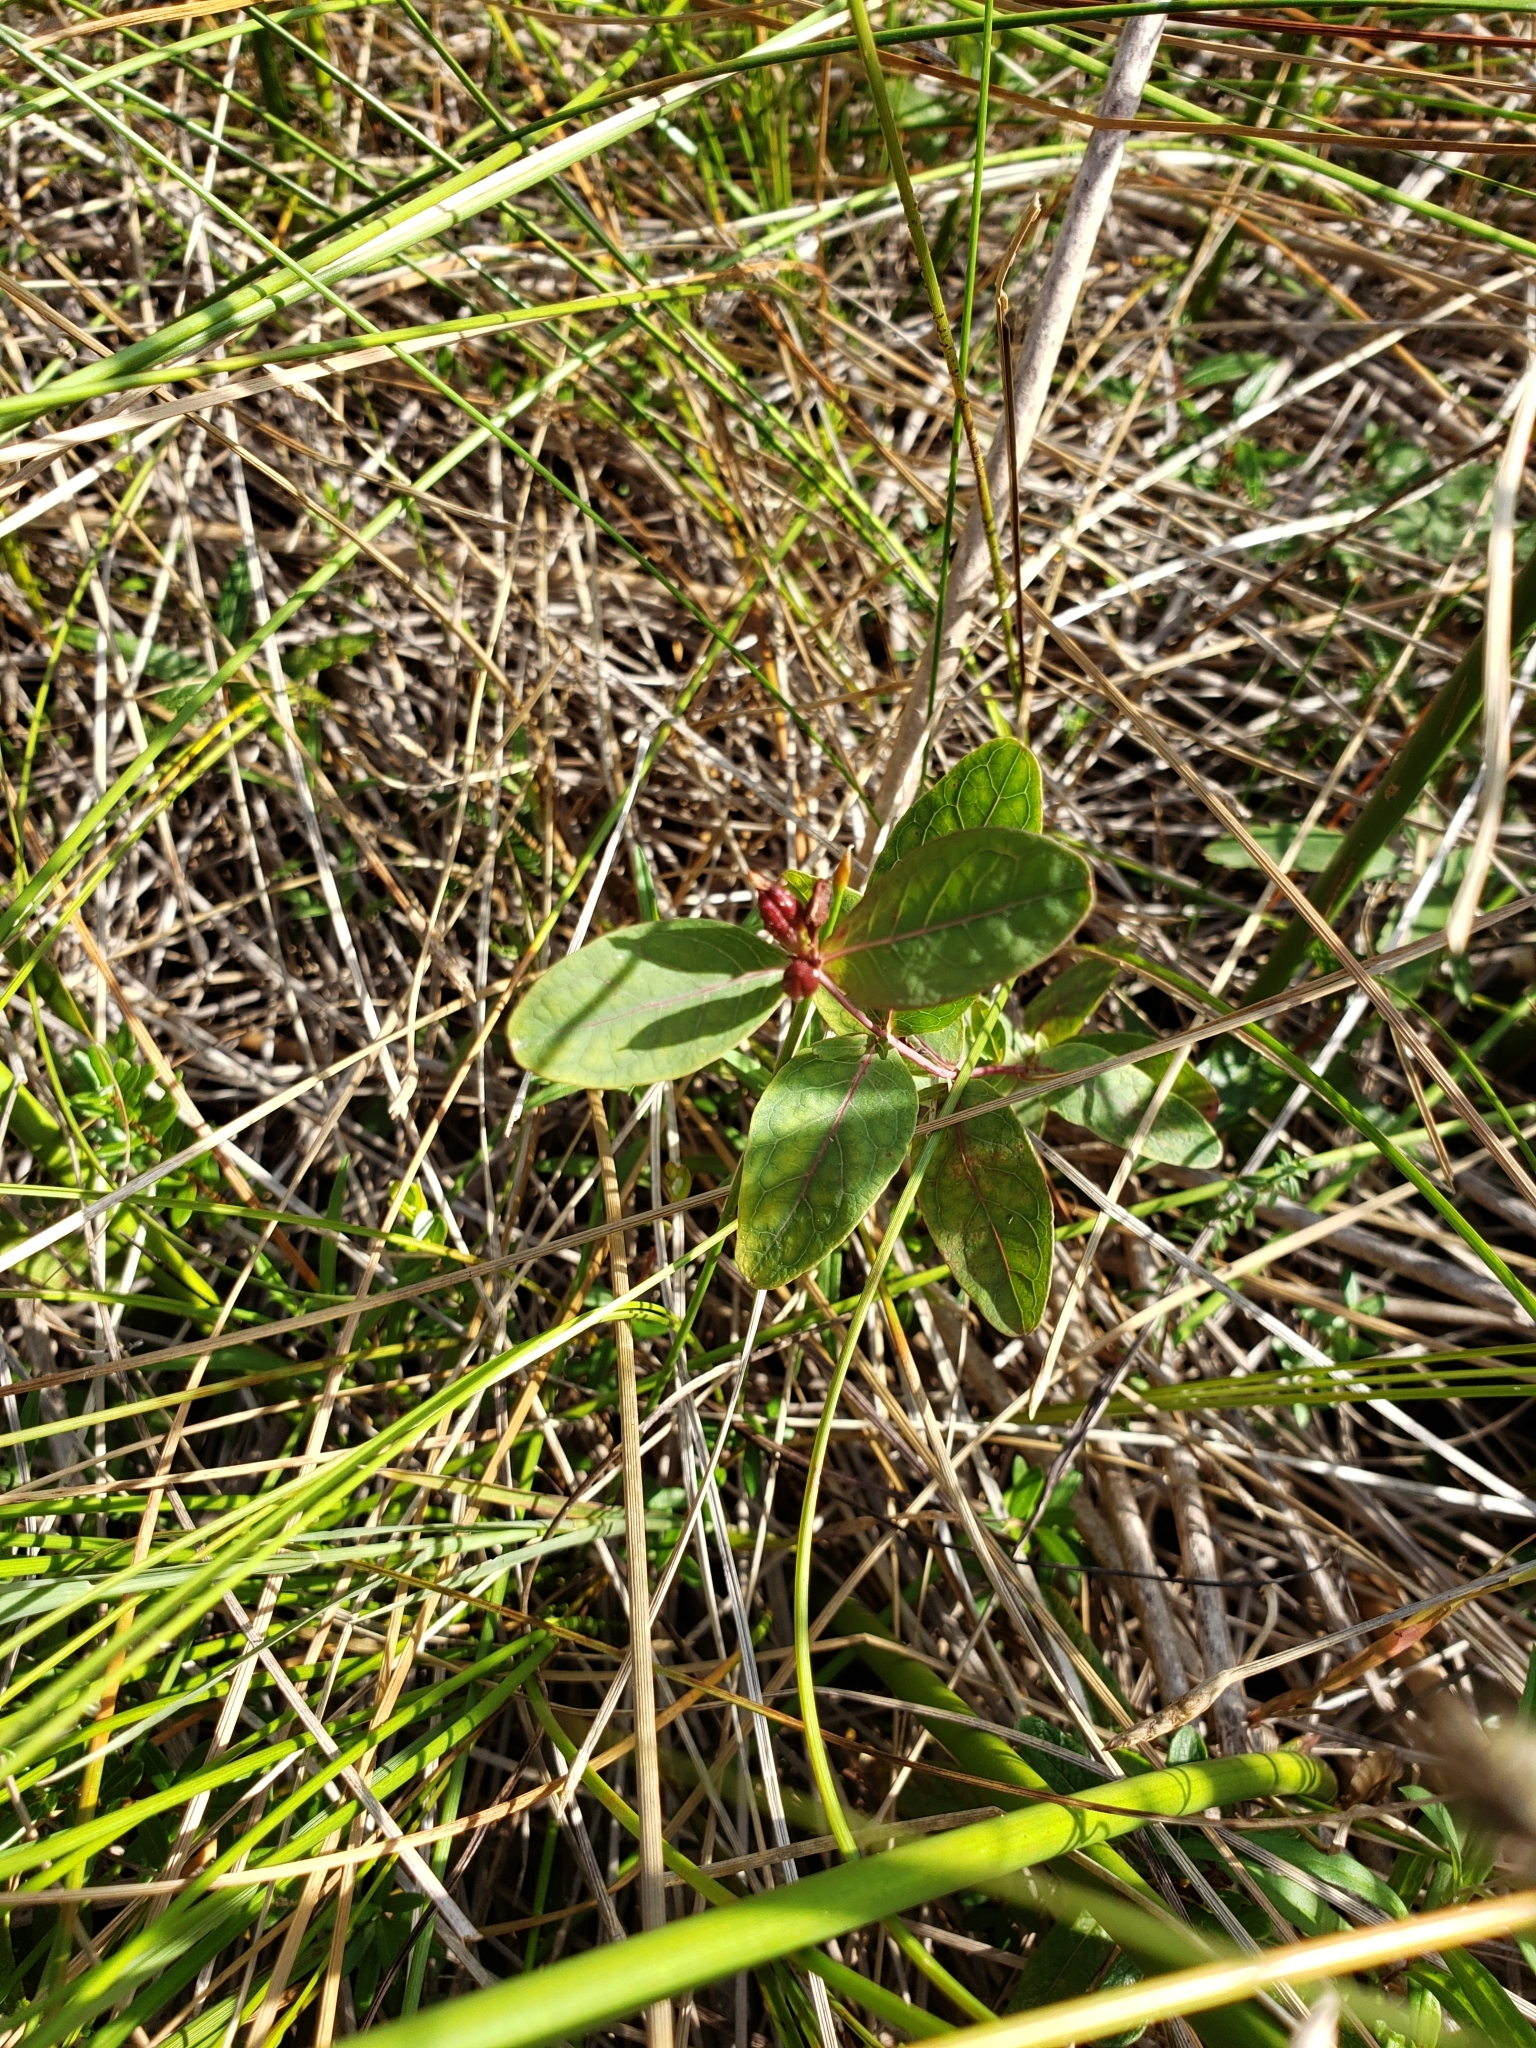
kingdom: Plantae
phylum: Tracheophyta
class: Magnoliopsida
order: Malpighiales
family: Hypericaceae
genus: Triadenum
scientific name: Triadenum fraseri
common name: Fraser's marsh st. johnswort
